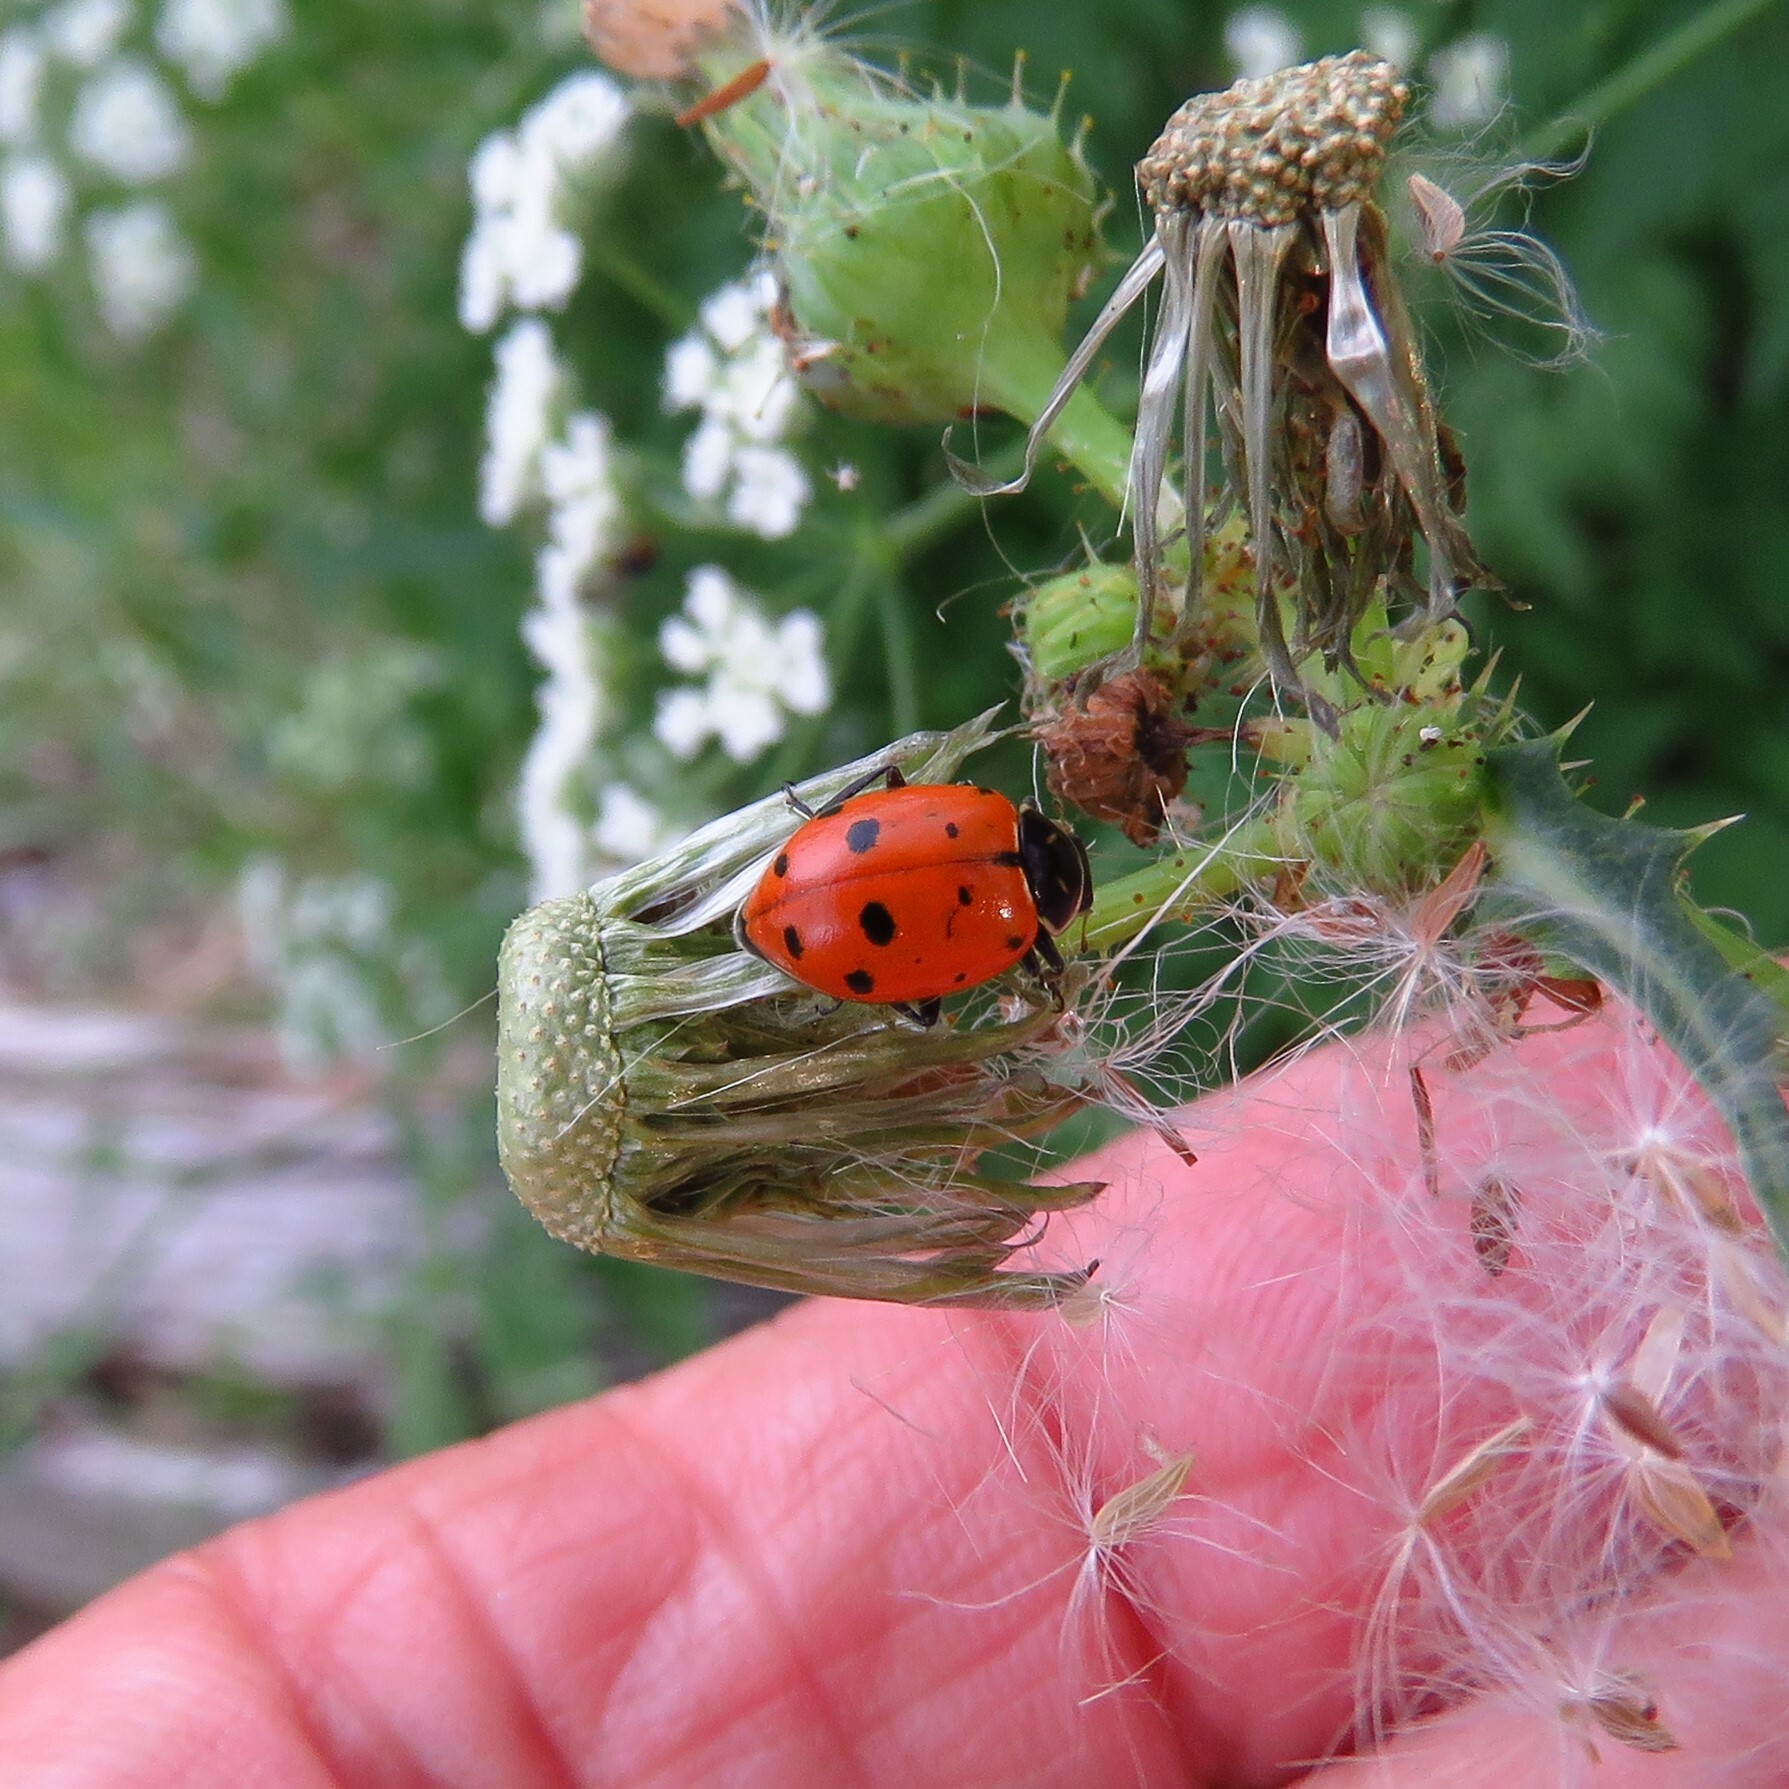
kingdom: Animalia
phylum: Arthropoda
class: Insecta
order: Coleoptera
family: Coccinellidae
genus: Hippodamia
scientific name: Hippodamia convergens
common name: Convergent lady beetle
